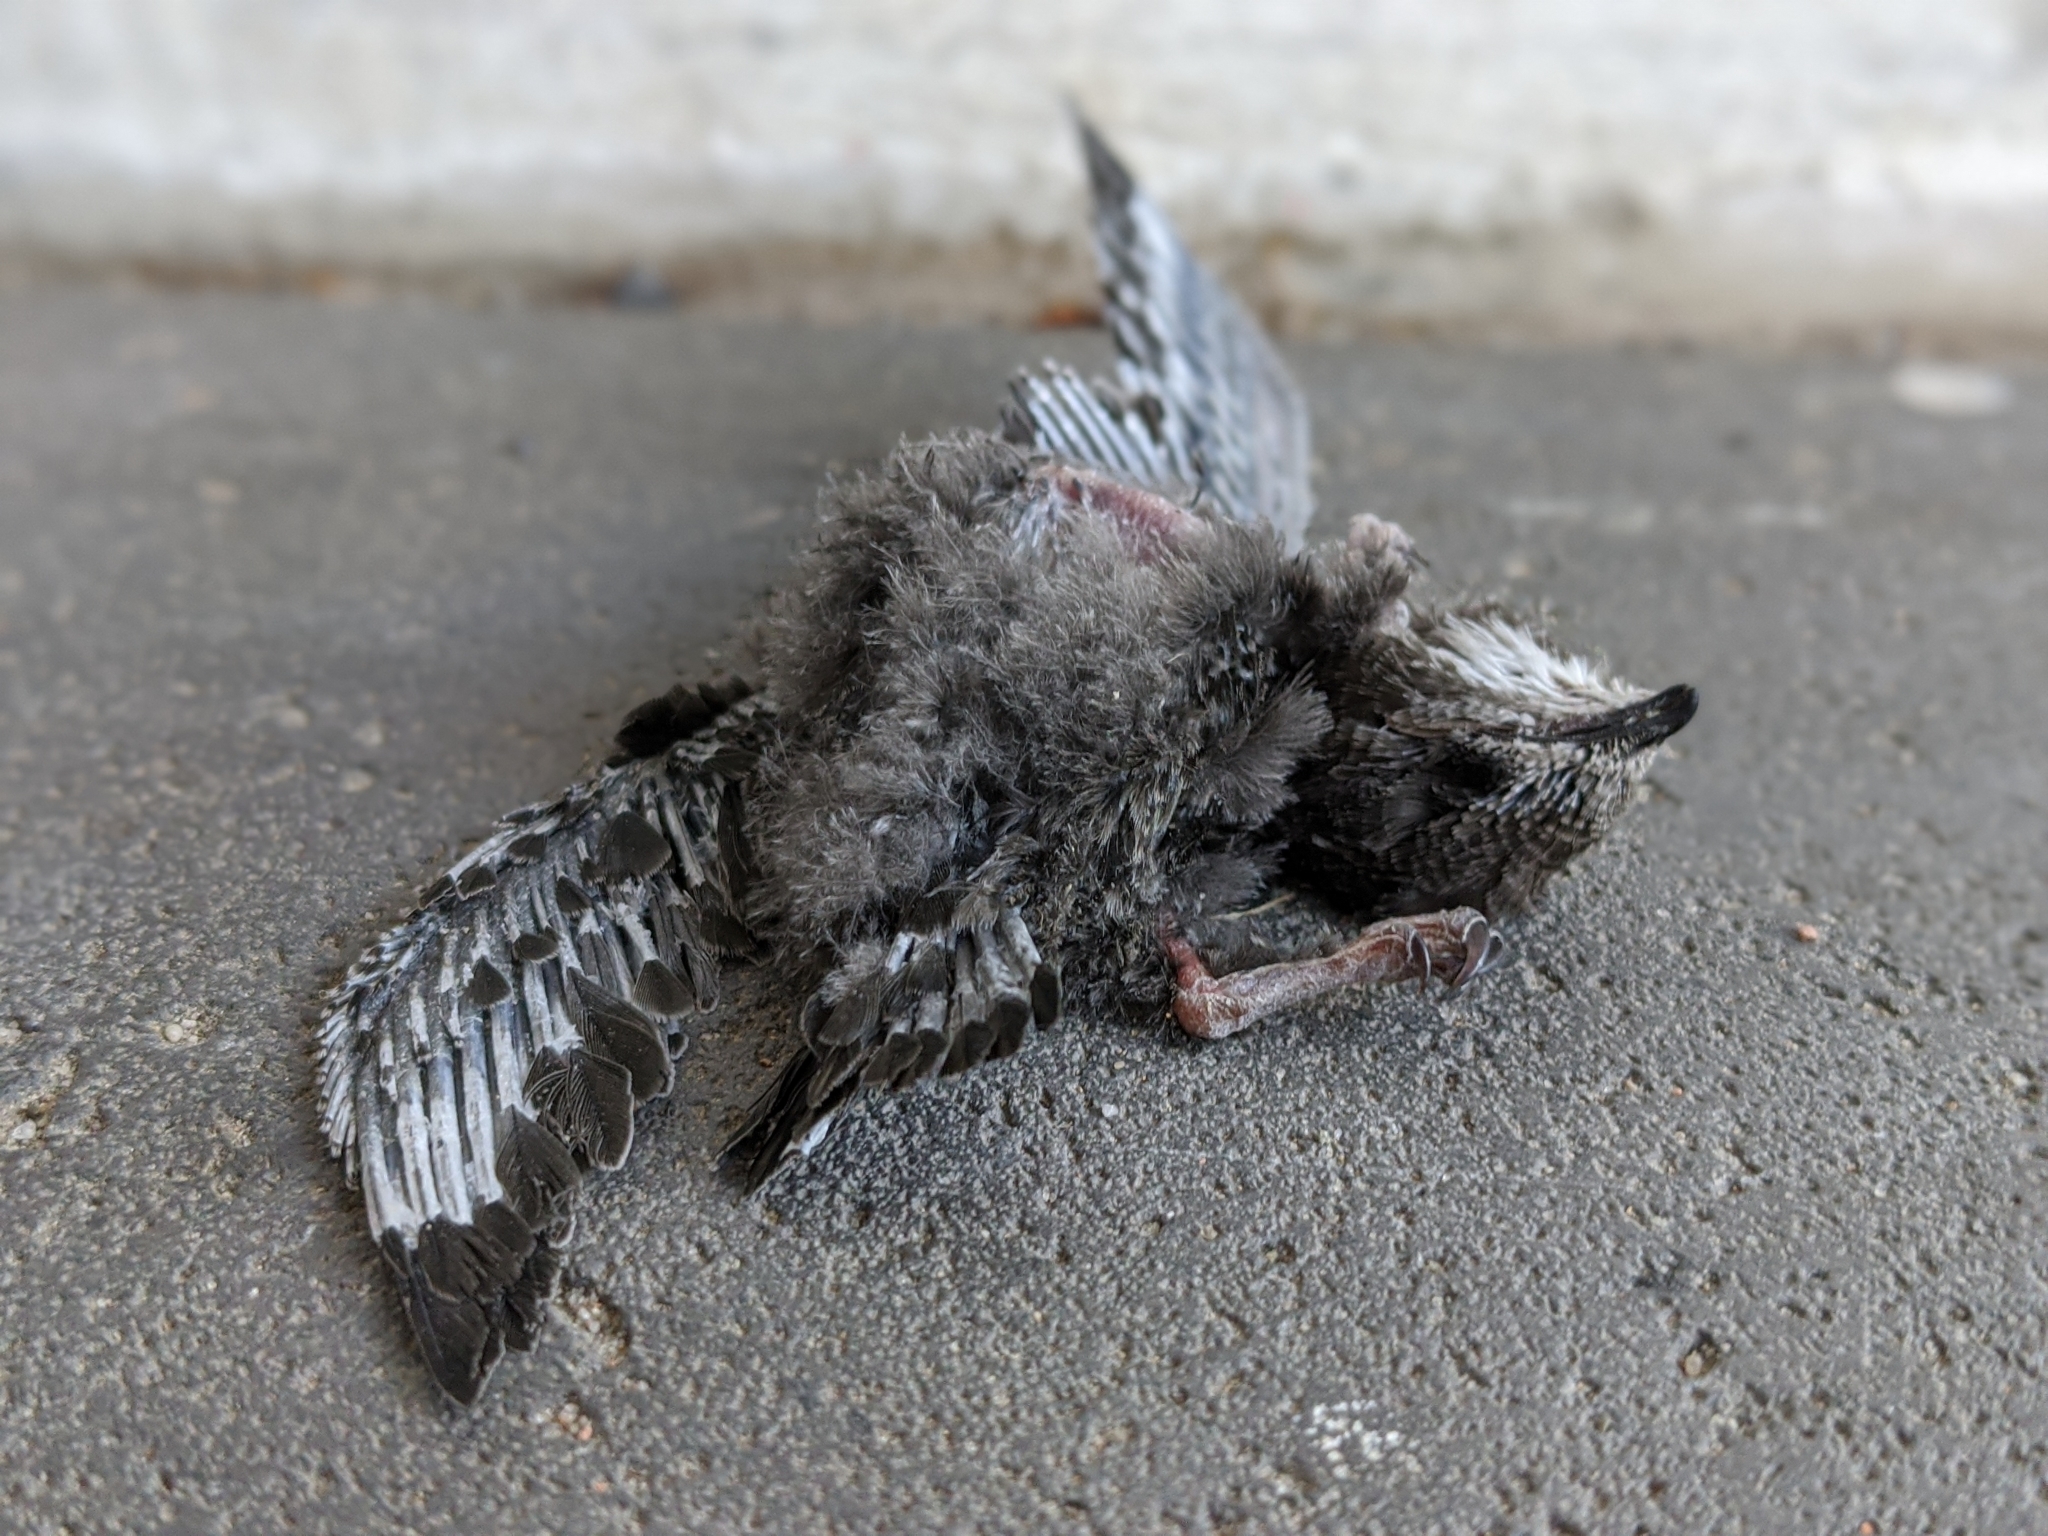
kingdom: Animalia
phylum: Chordata
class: Aves
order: Apodiformes
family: Apodidae
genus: Apus
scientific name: Apus apus
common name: Common swift
